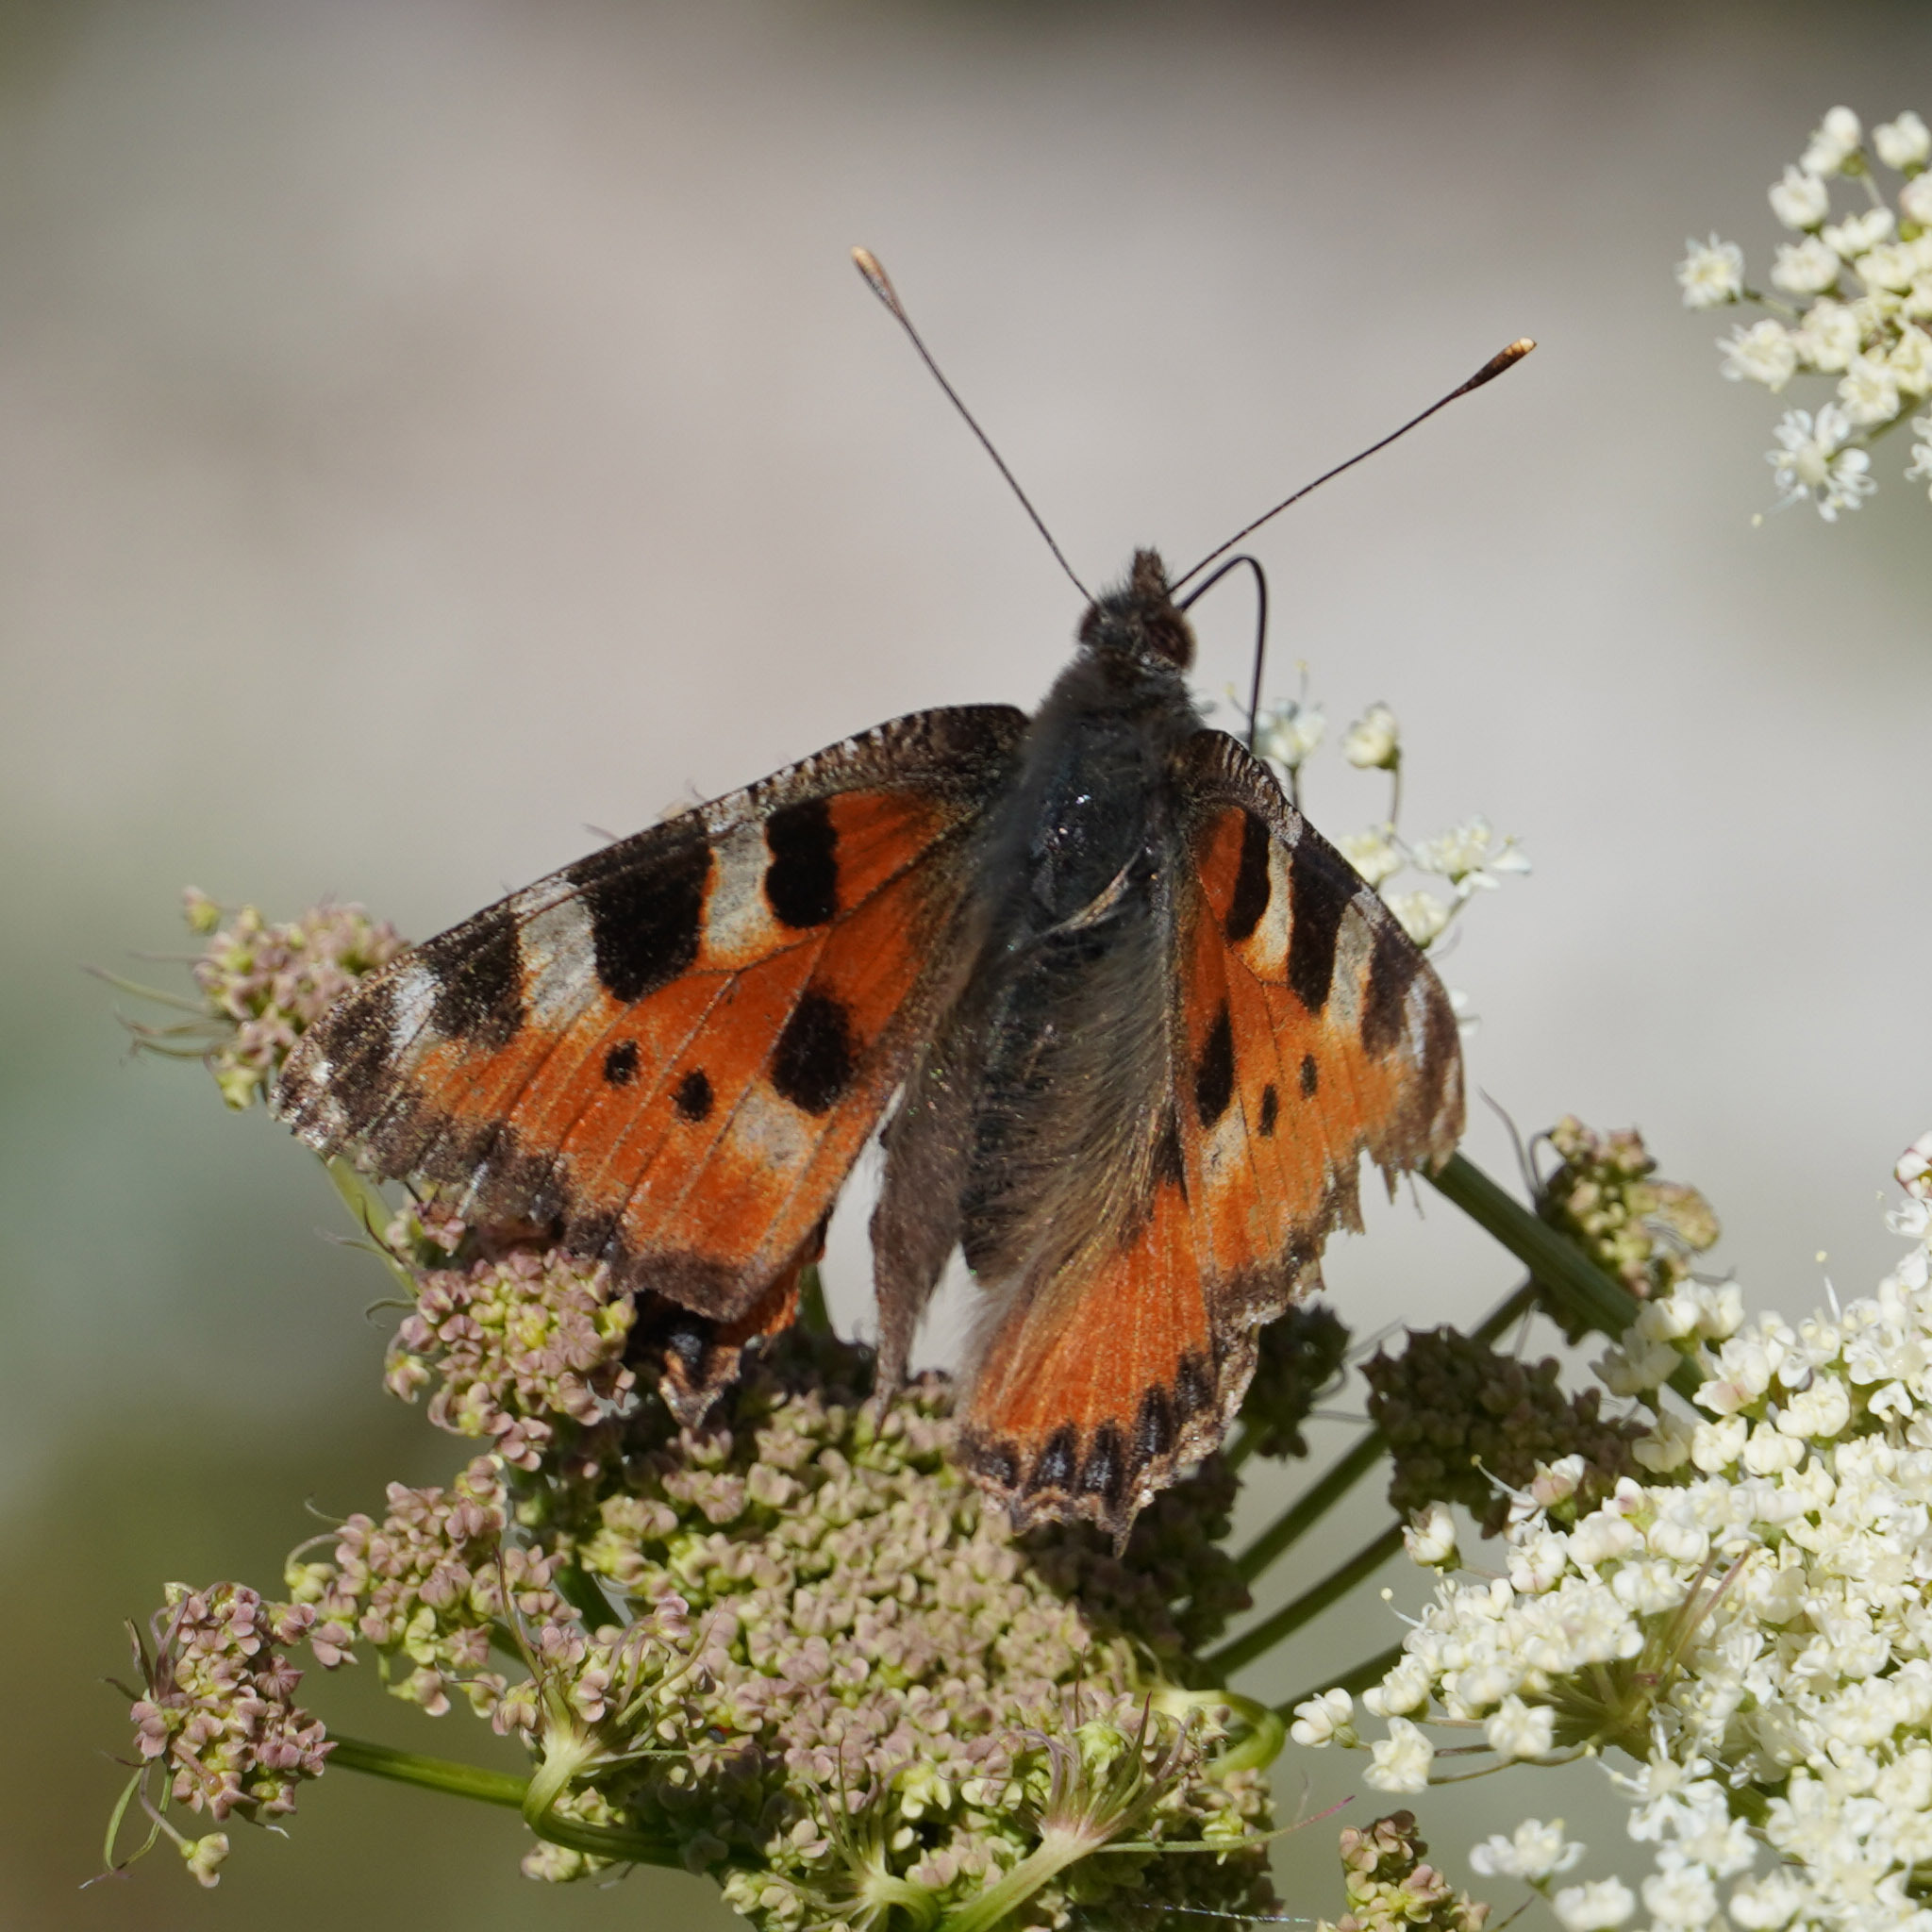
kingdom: Animalia
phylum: Arthropoda
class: Insecta
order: Lepidoptera
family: Nymphalidae
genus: Aglais
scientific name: Aglais urticae
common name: Small tortoiseshell
